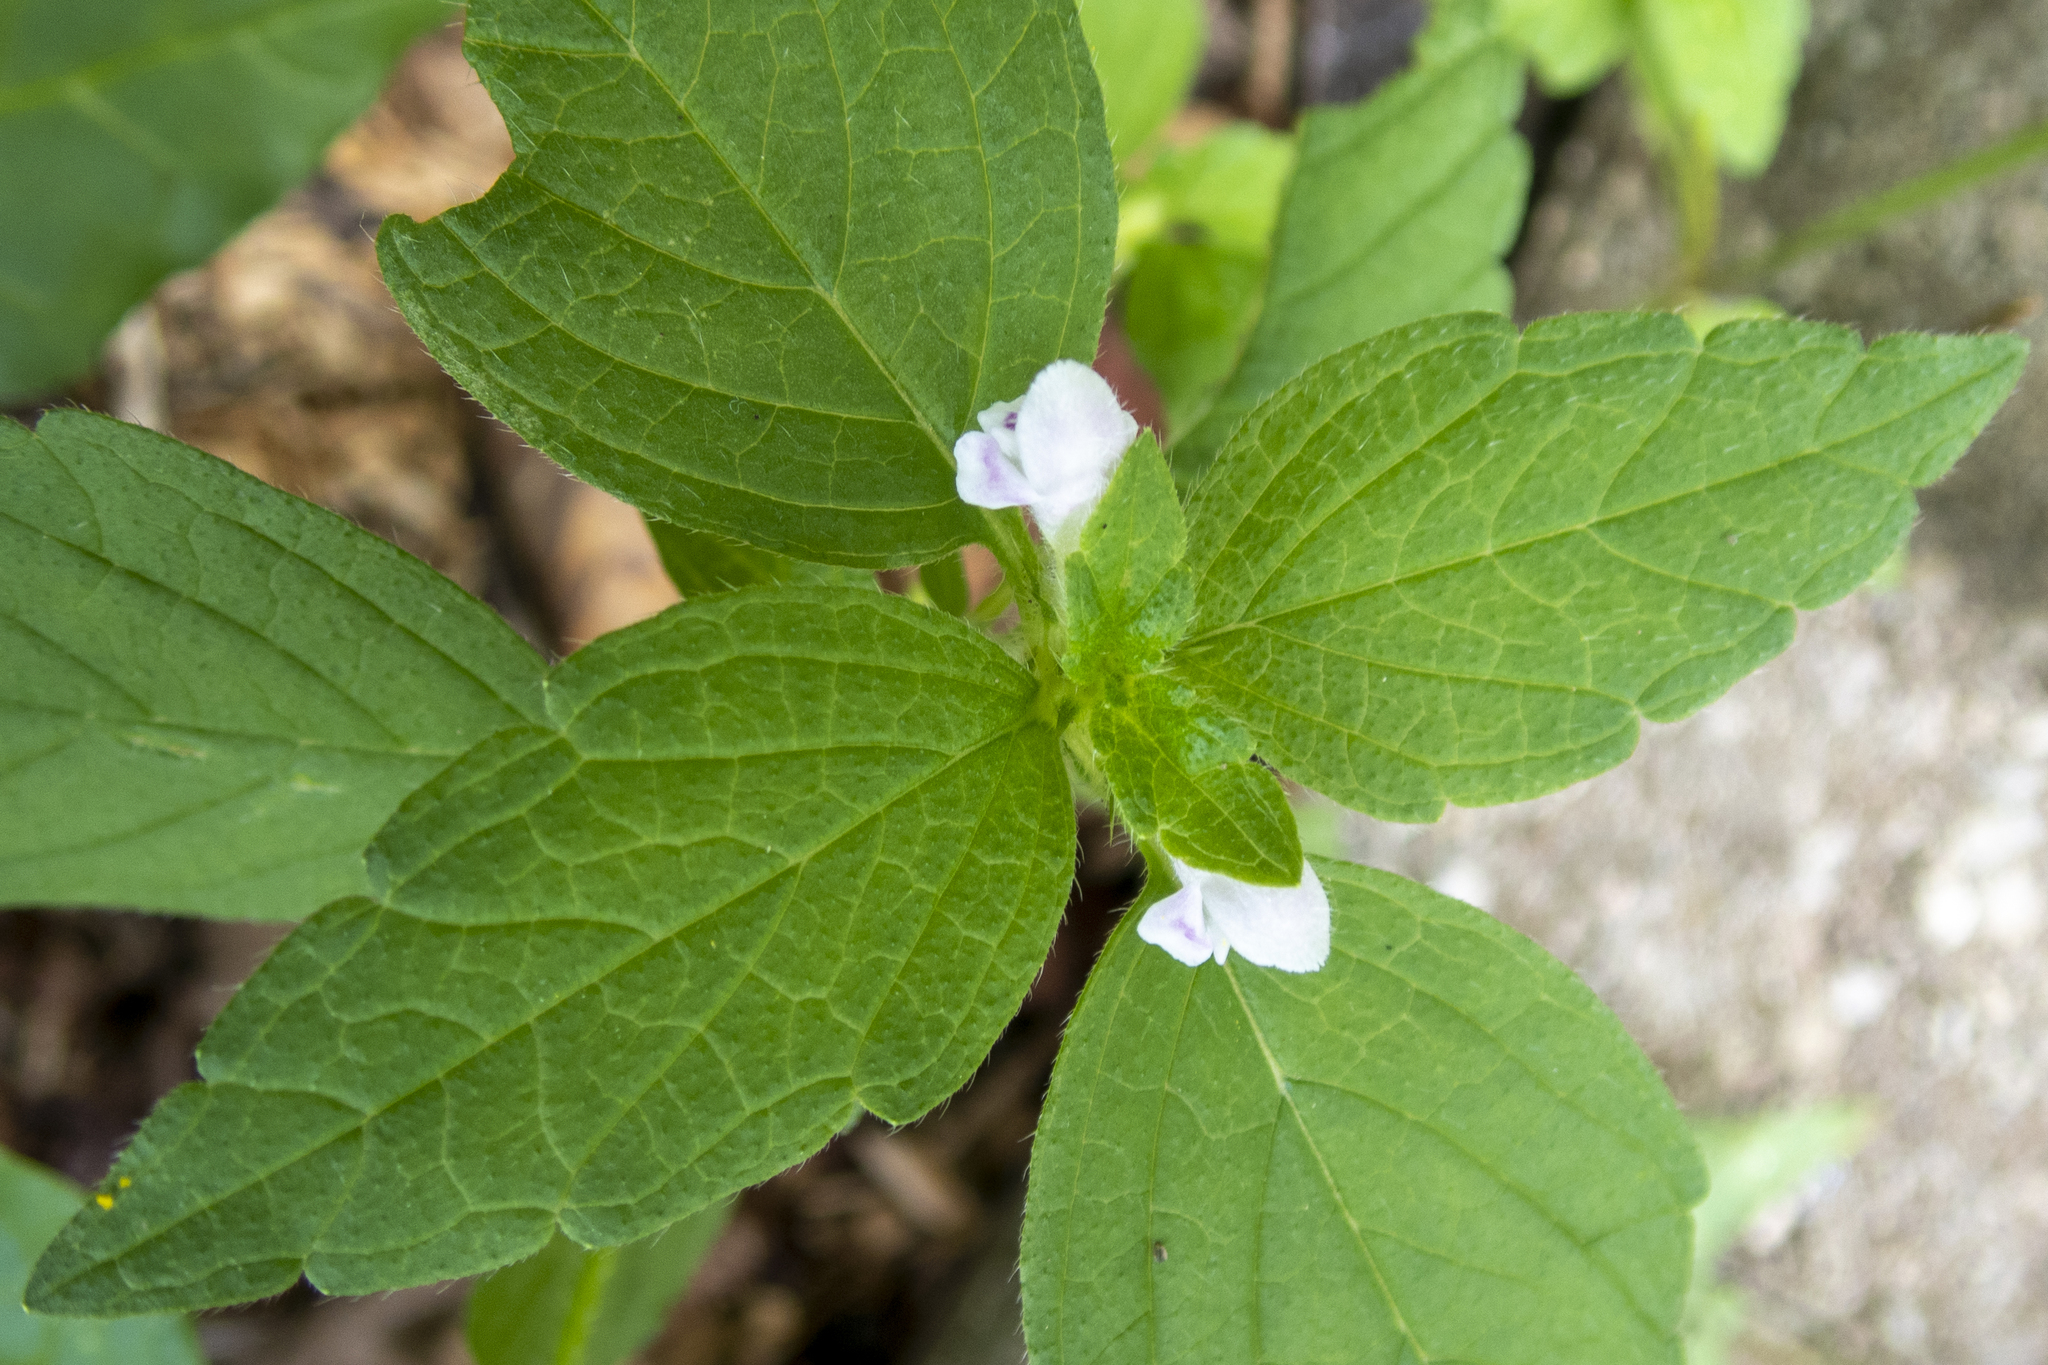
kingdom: Plantae
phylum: Tracheophyta
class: Magnoliopsida
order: Lamiales
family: Lamiaceae
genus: Galeopsis
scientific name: Galeopsis tetrahit
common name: Common hemp-nettle
